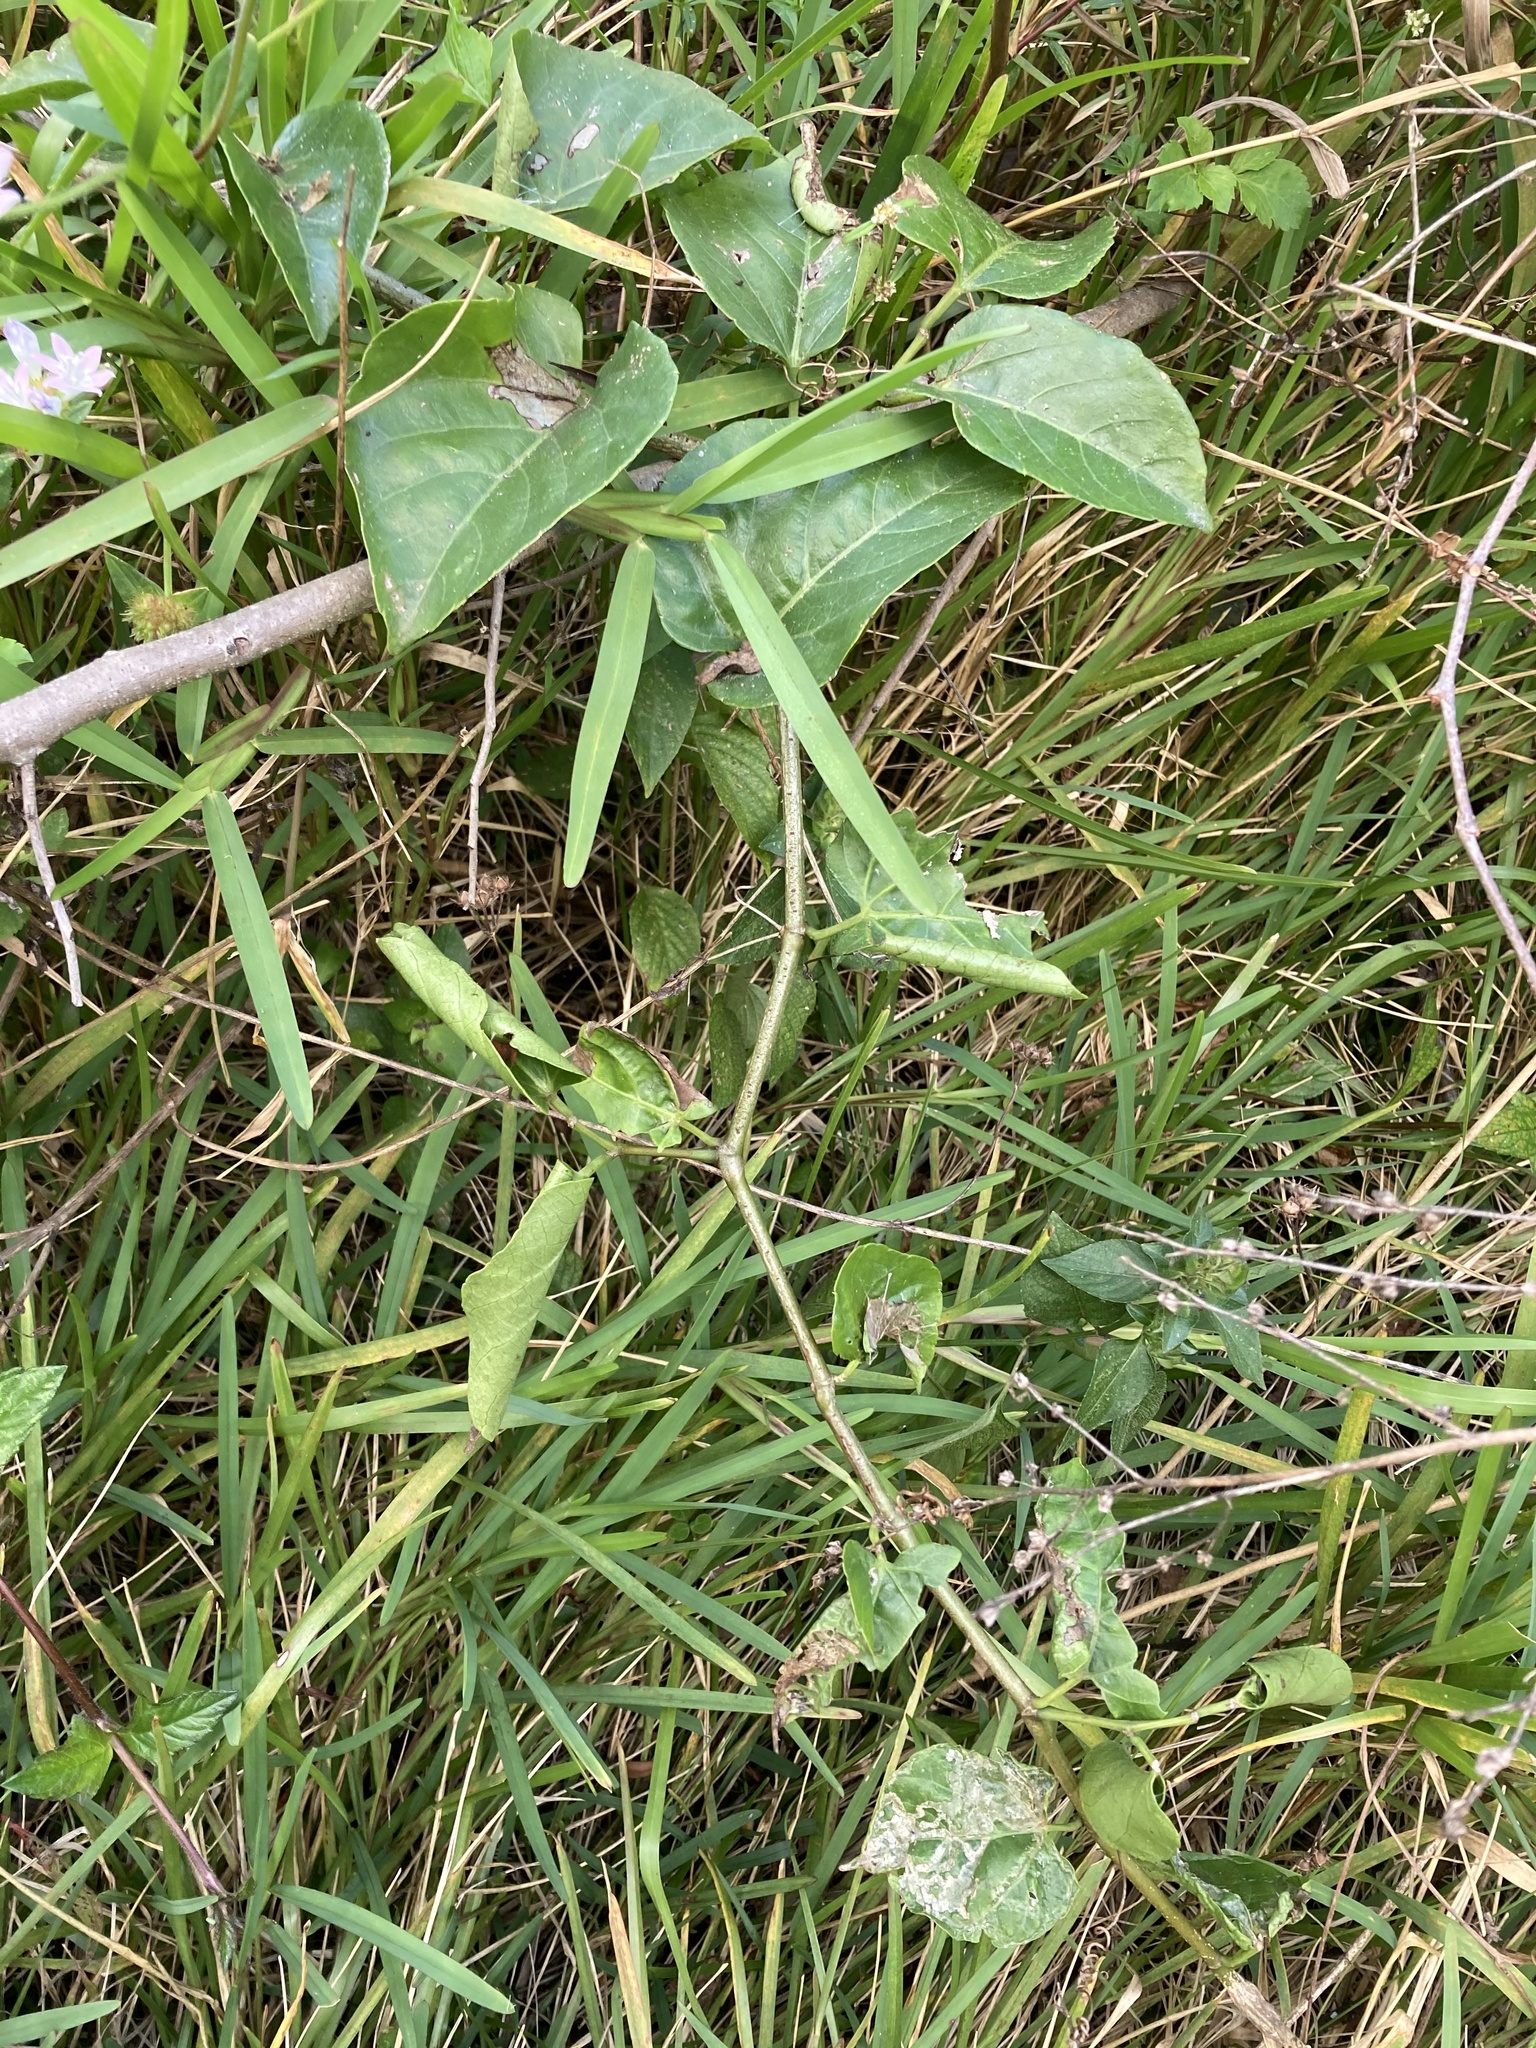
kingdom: Plantae
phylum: Tracheophyta
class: Magnoliopsida
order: Vitales
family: Vitaceae
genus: Cissus
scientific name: Cissus verticillata
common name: Princess vine
